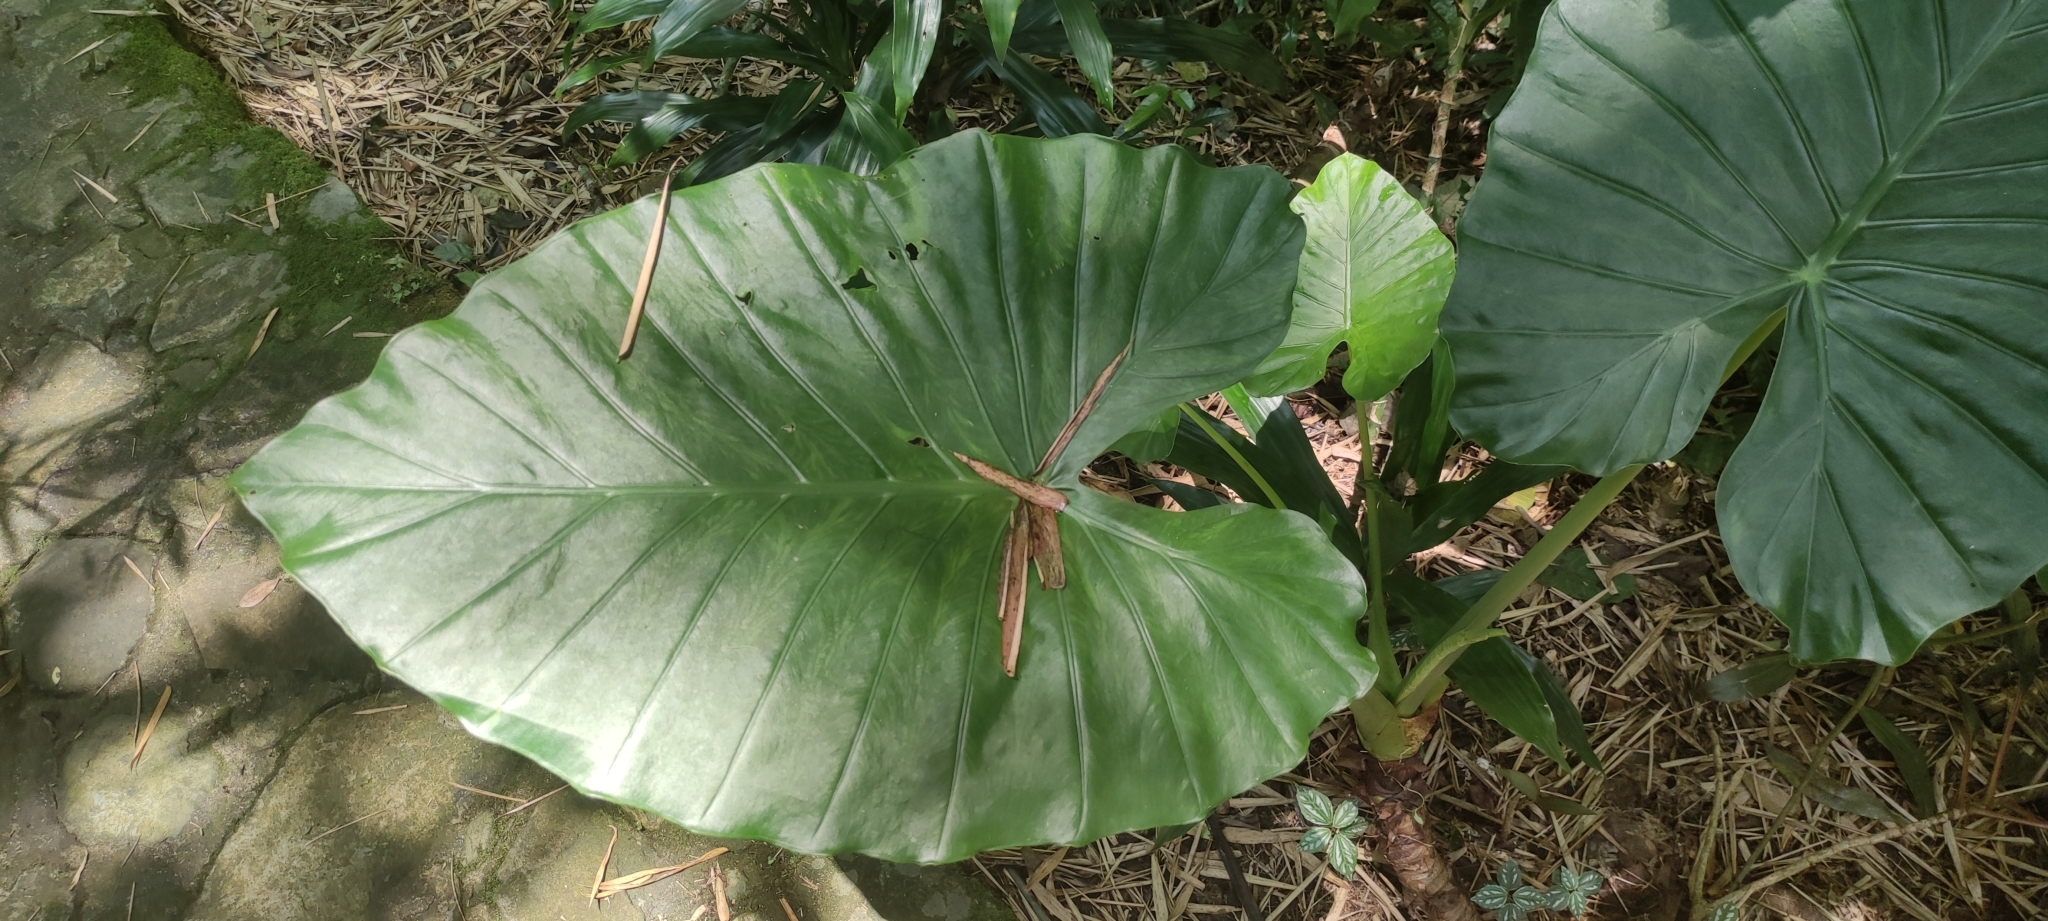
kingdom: Plantae
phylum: Tracheophyta
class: Liliopsida
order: Alismatales
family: Araceae
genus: Alocasia
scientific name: Alocasia odora
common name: Asian taro
